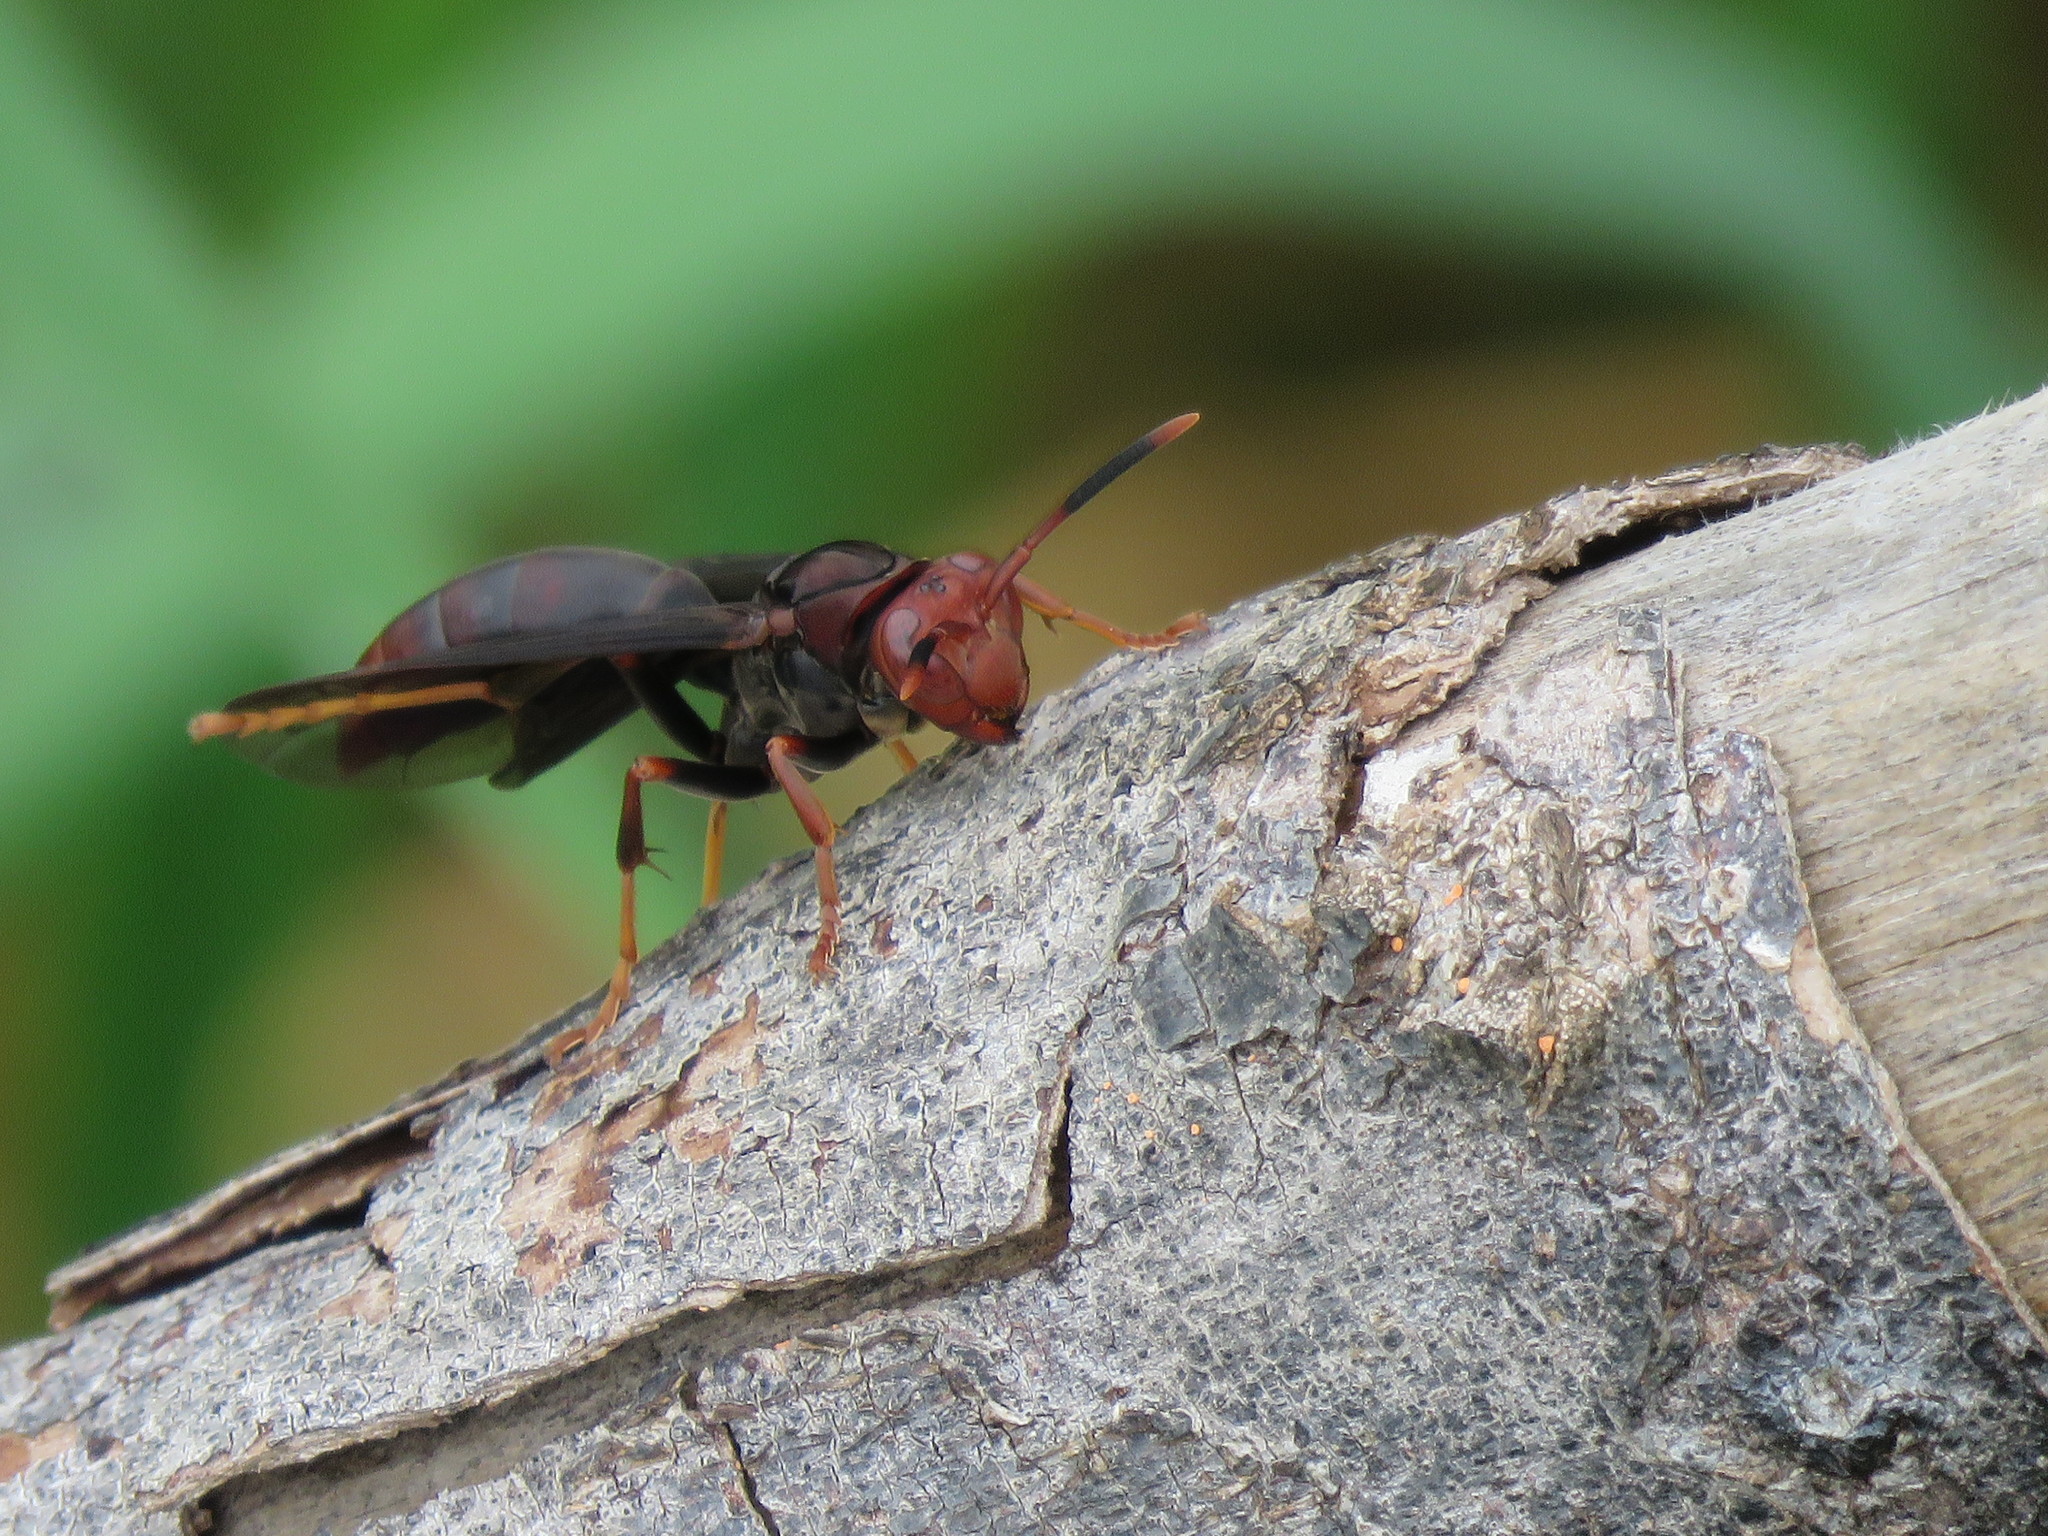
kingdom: Animalia
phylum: Arthropoda
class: Insecta
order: Hymenoptera
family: Eumenidae
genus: Polistes
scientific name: Polistes ferreri
